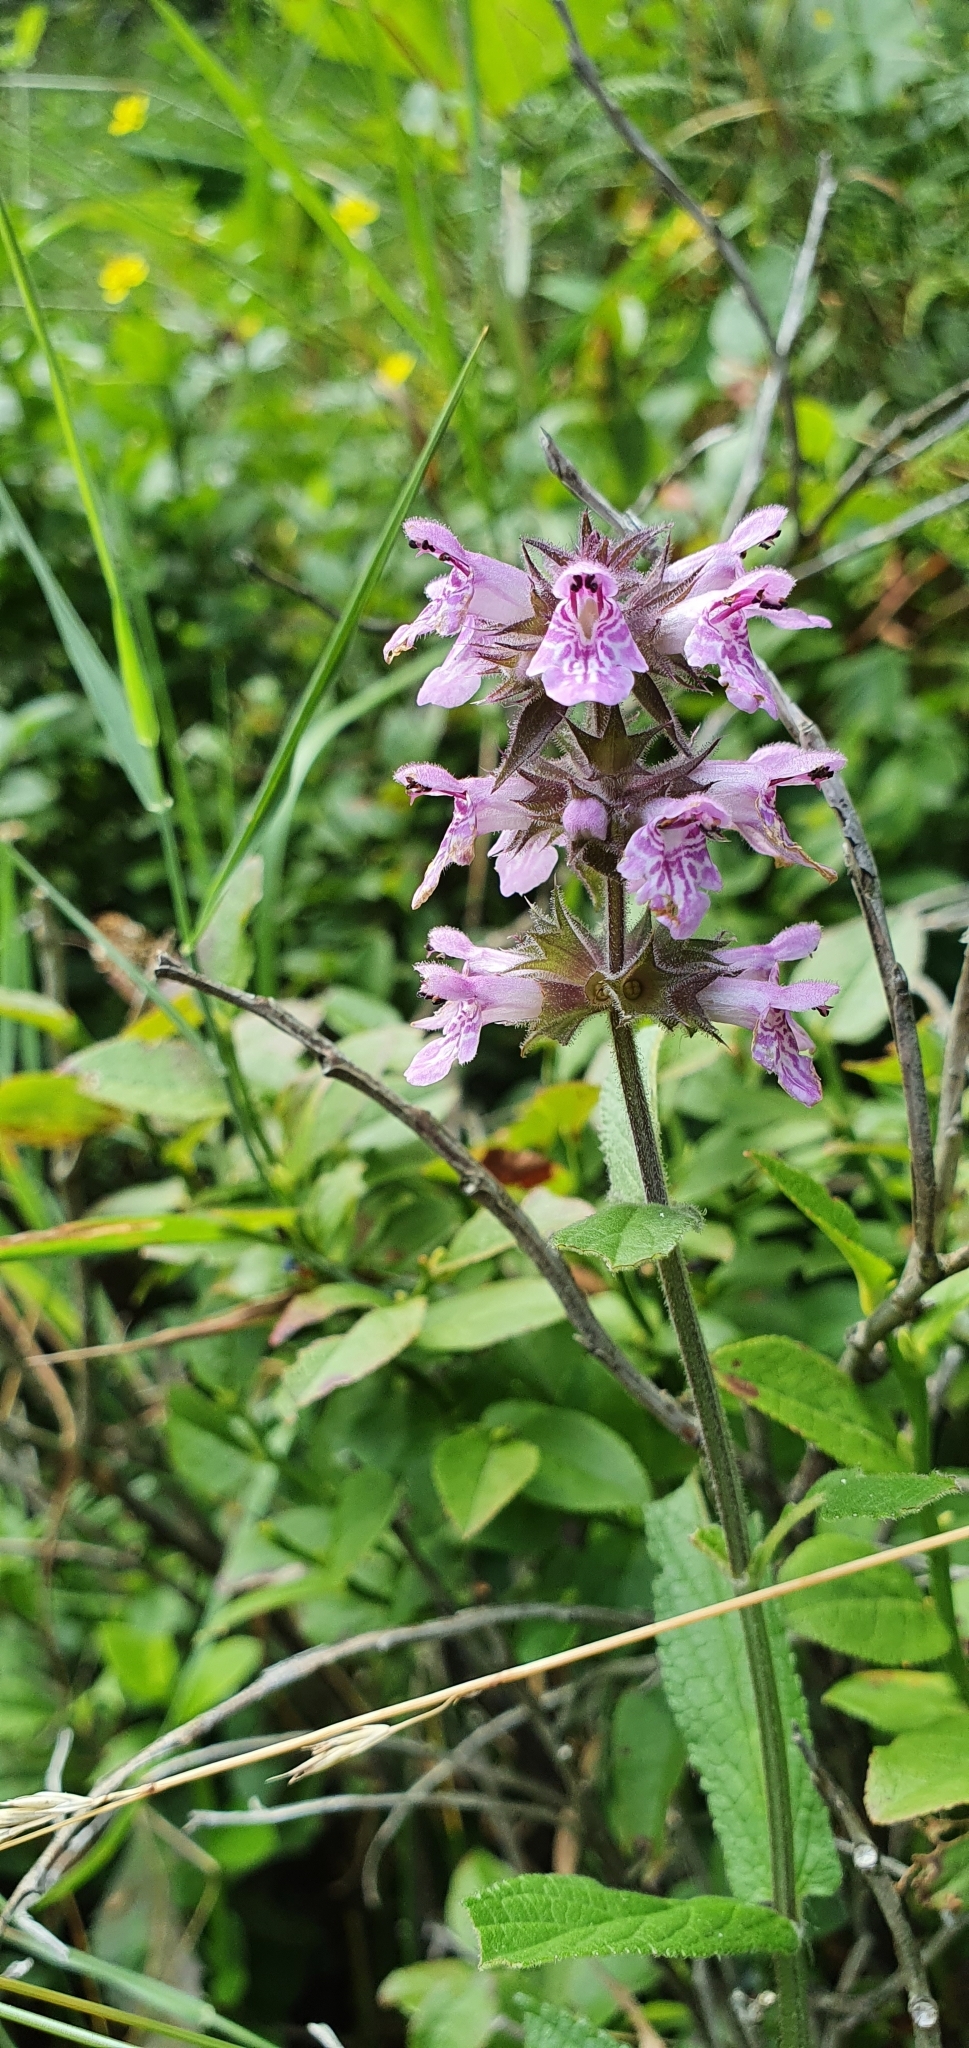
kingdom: Plantae
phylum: Tracheophyta
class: Magnoliopsida
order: Lamiales
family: Lamiaceae
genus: Stachys
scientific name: Stachys palustris
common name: Marsh woundwort
